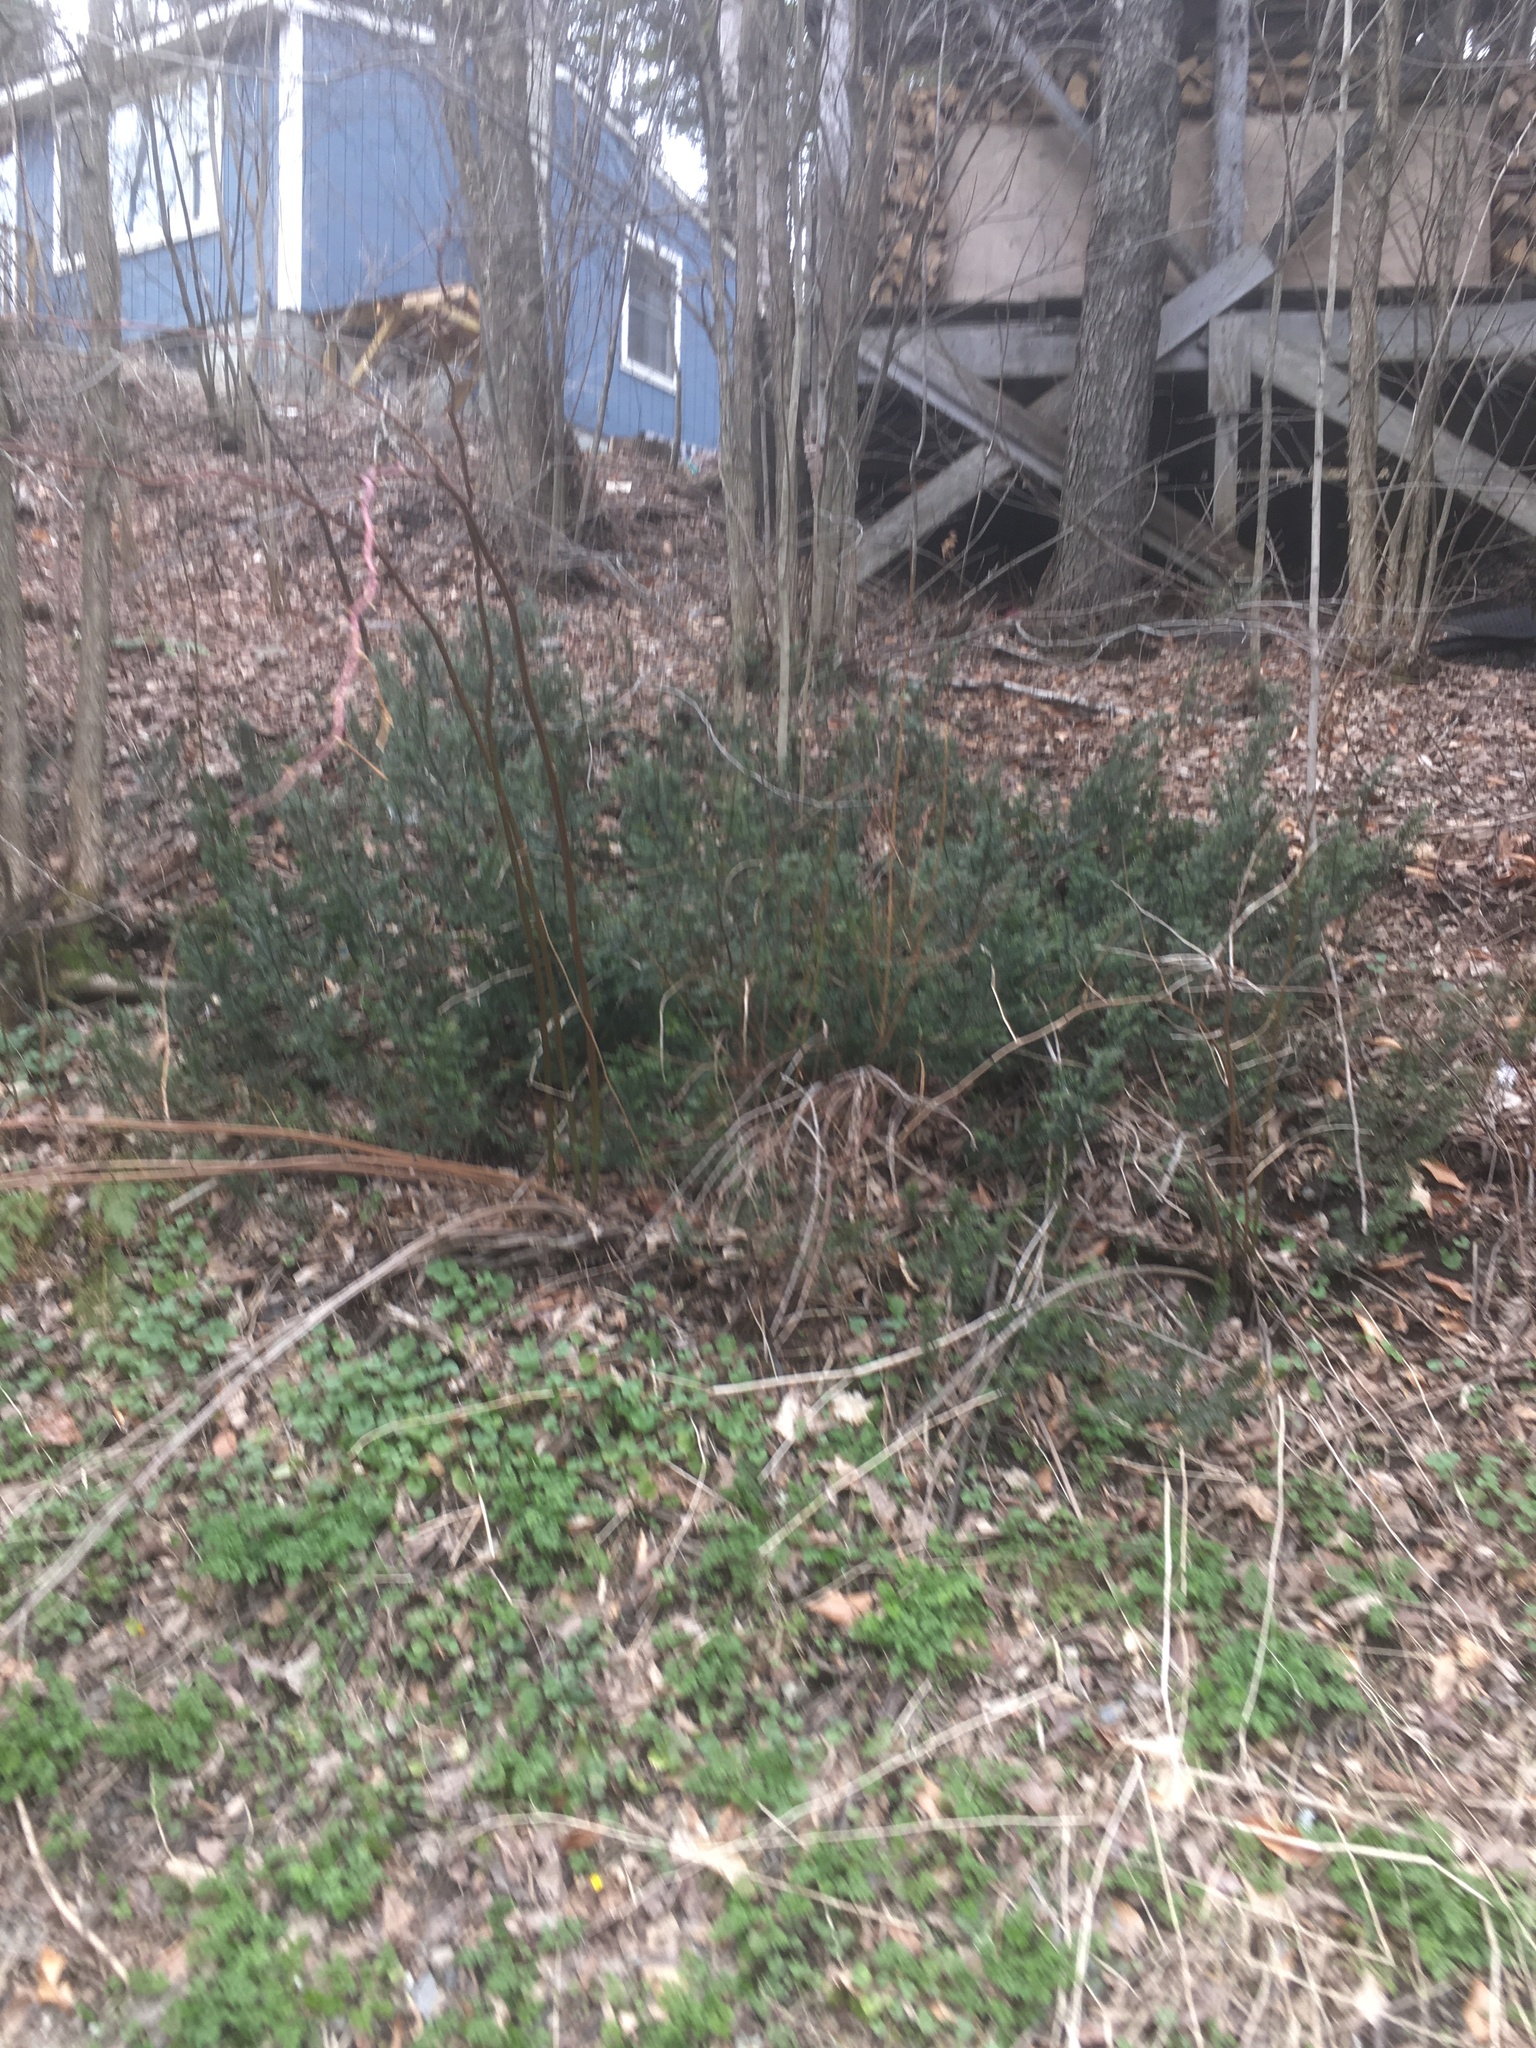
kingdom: Plantae
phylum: Tracheophyta
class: Pinopsida
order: Pinales
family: Taxaceae
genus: Taxus
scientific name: Taxus canadensis
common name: American yew
